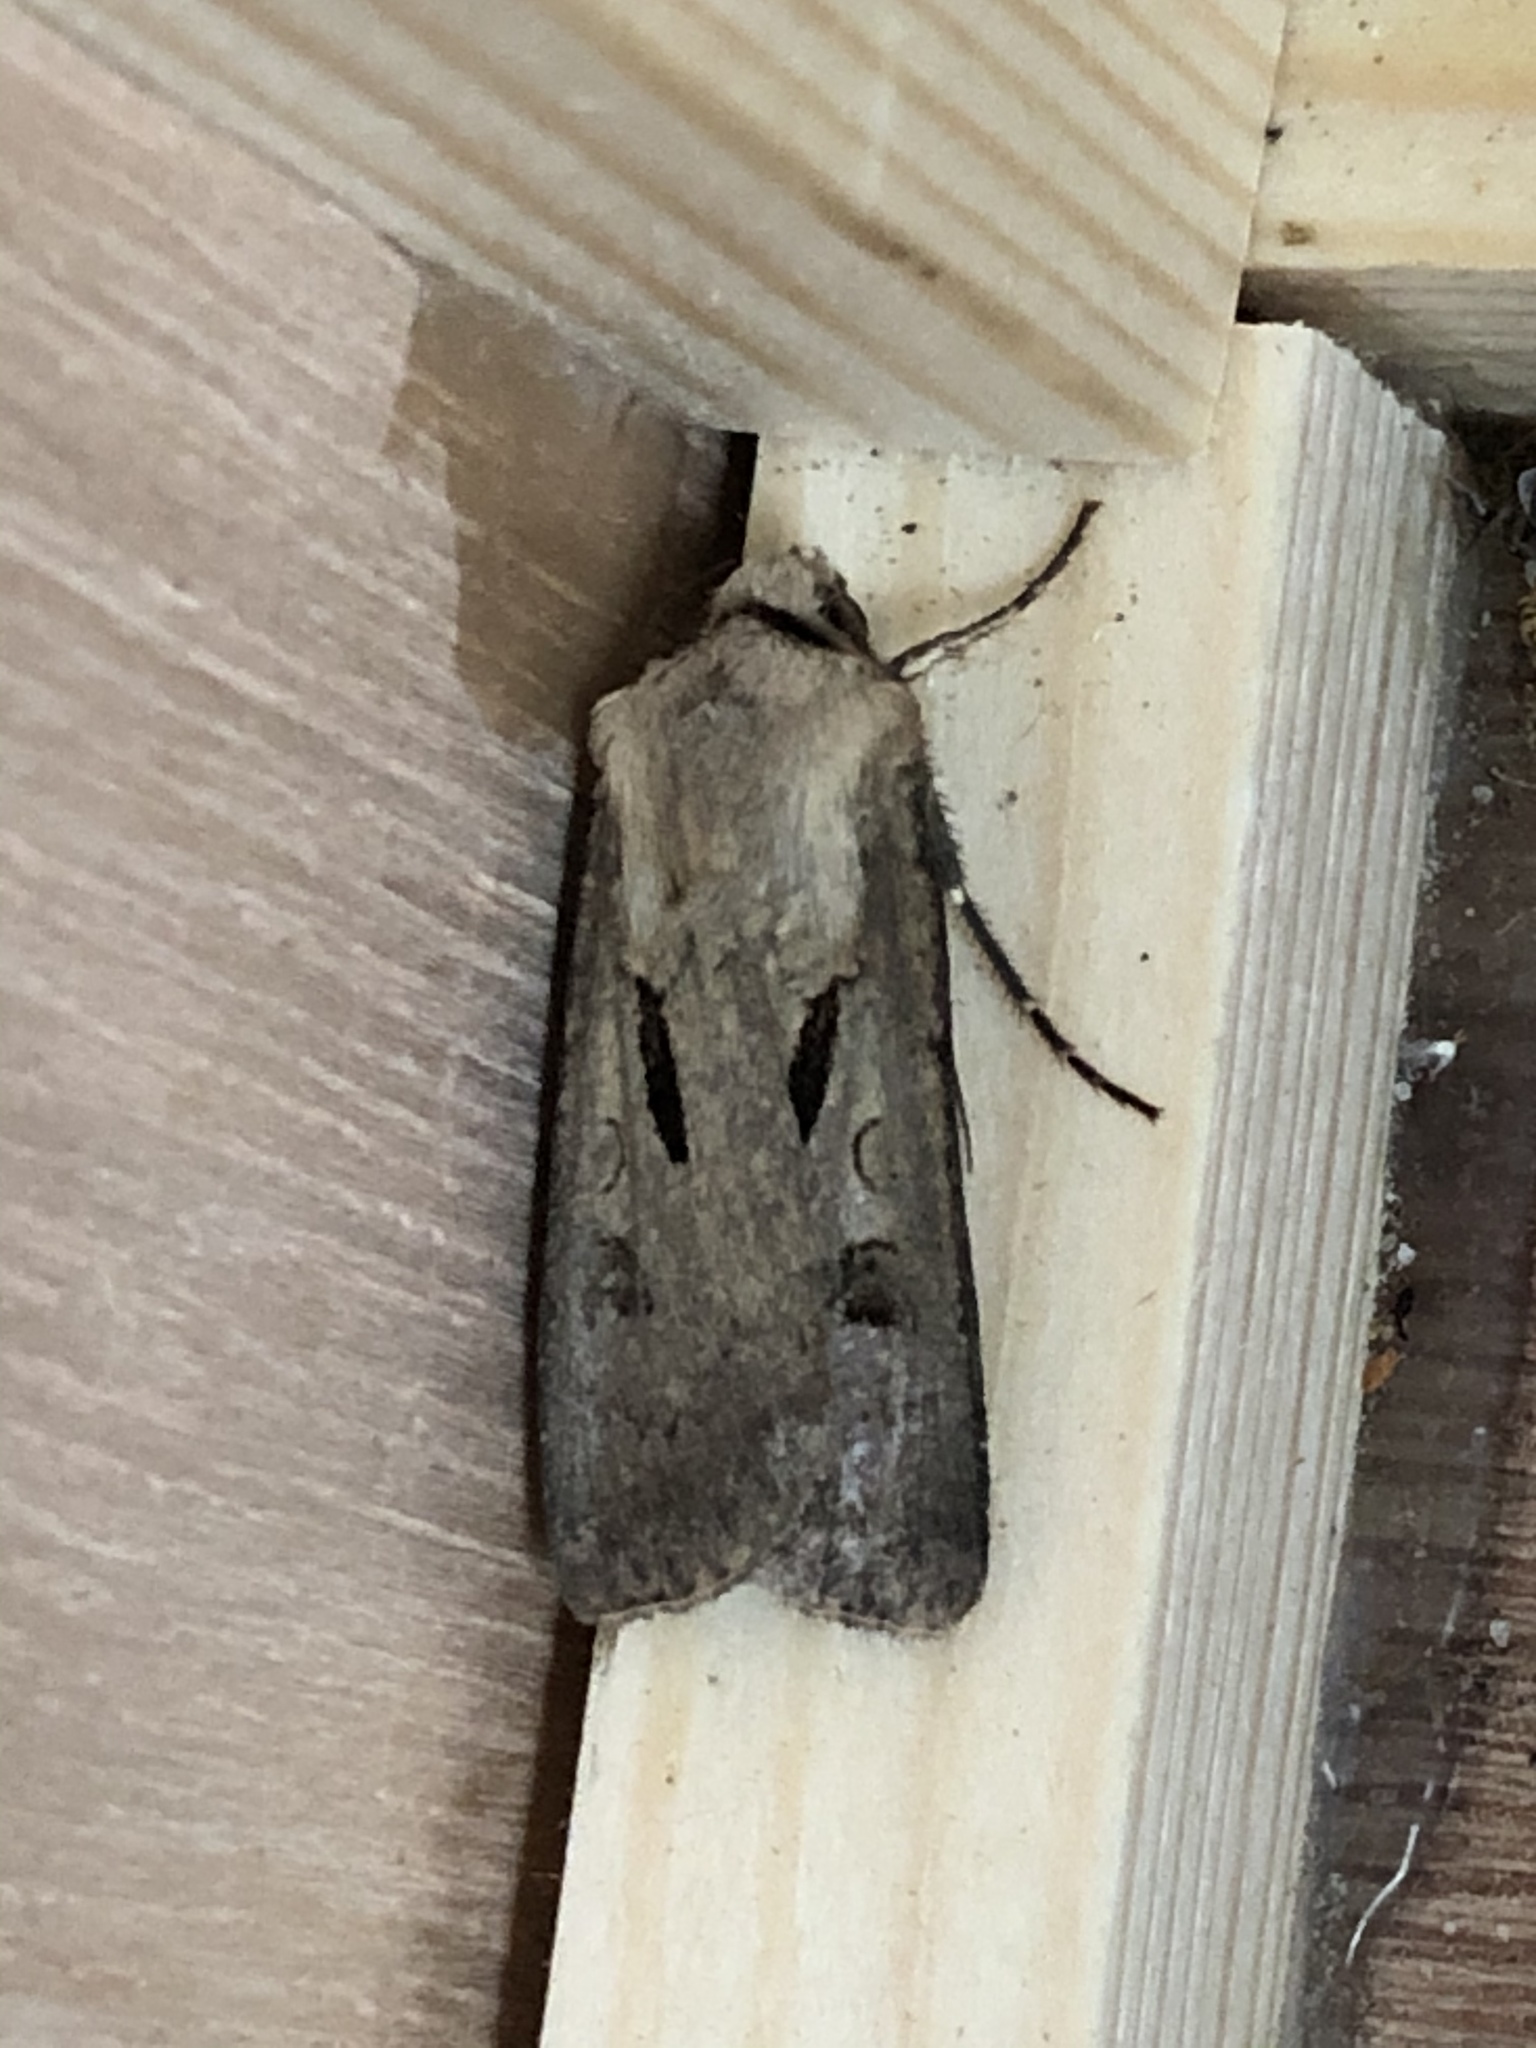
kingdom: Animalia
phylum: Arthropoda
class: Insecta
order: Lepidoptera
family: Noctuidae
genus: Agrotis
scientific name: Agrotis exclamationis
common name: Heart and dart
